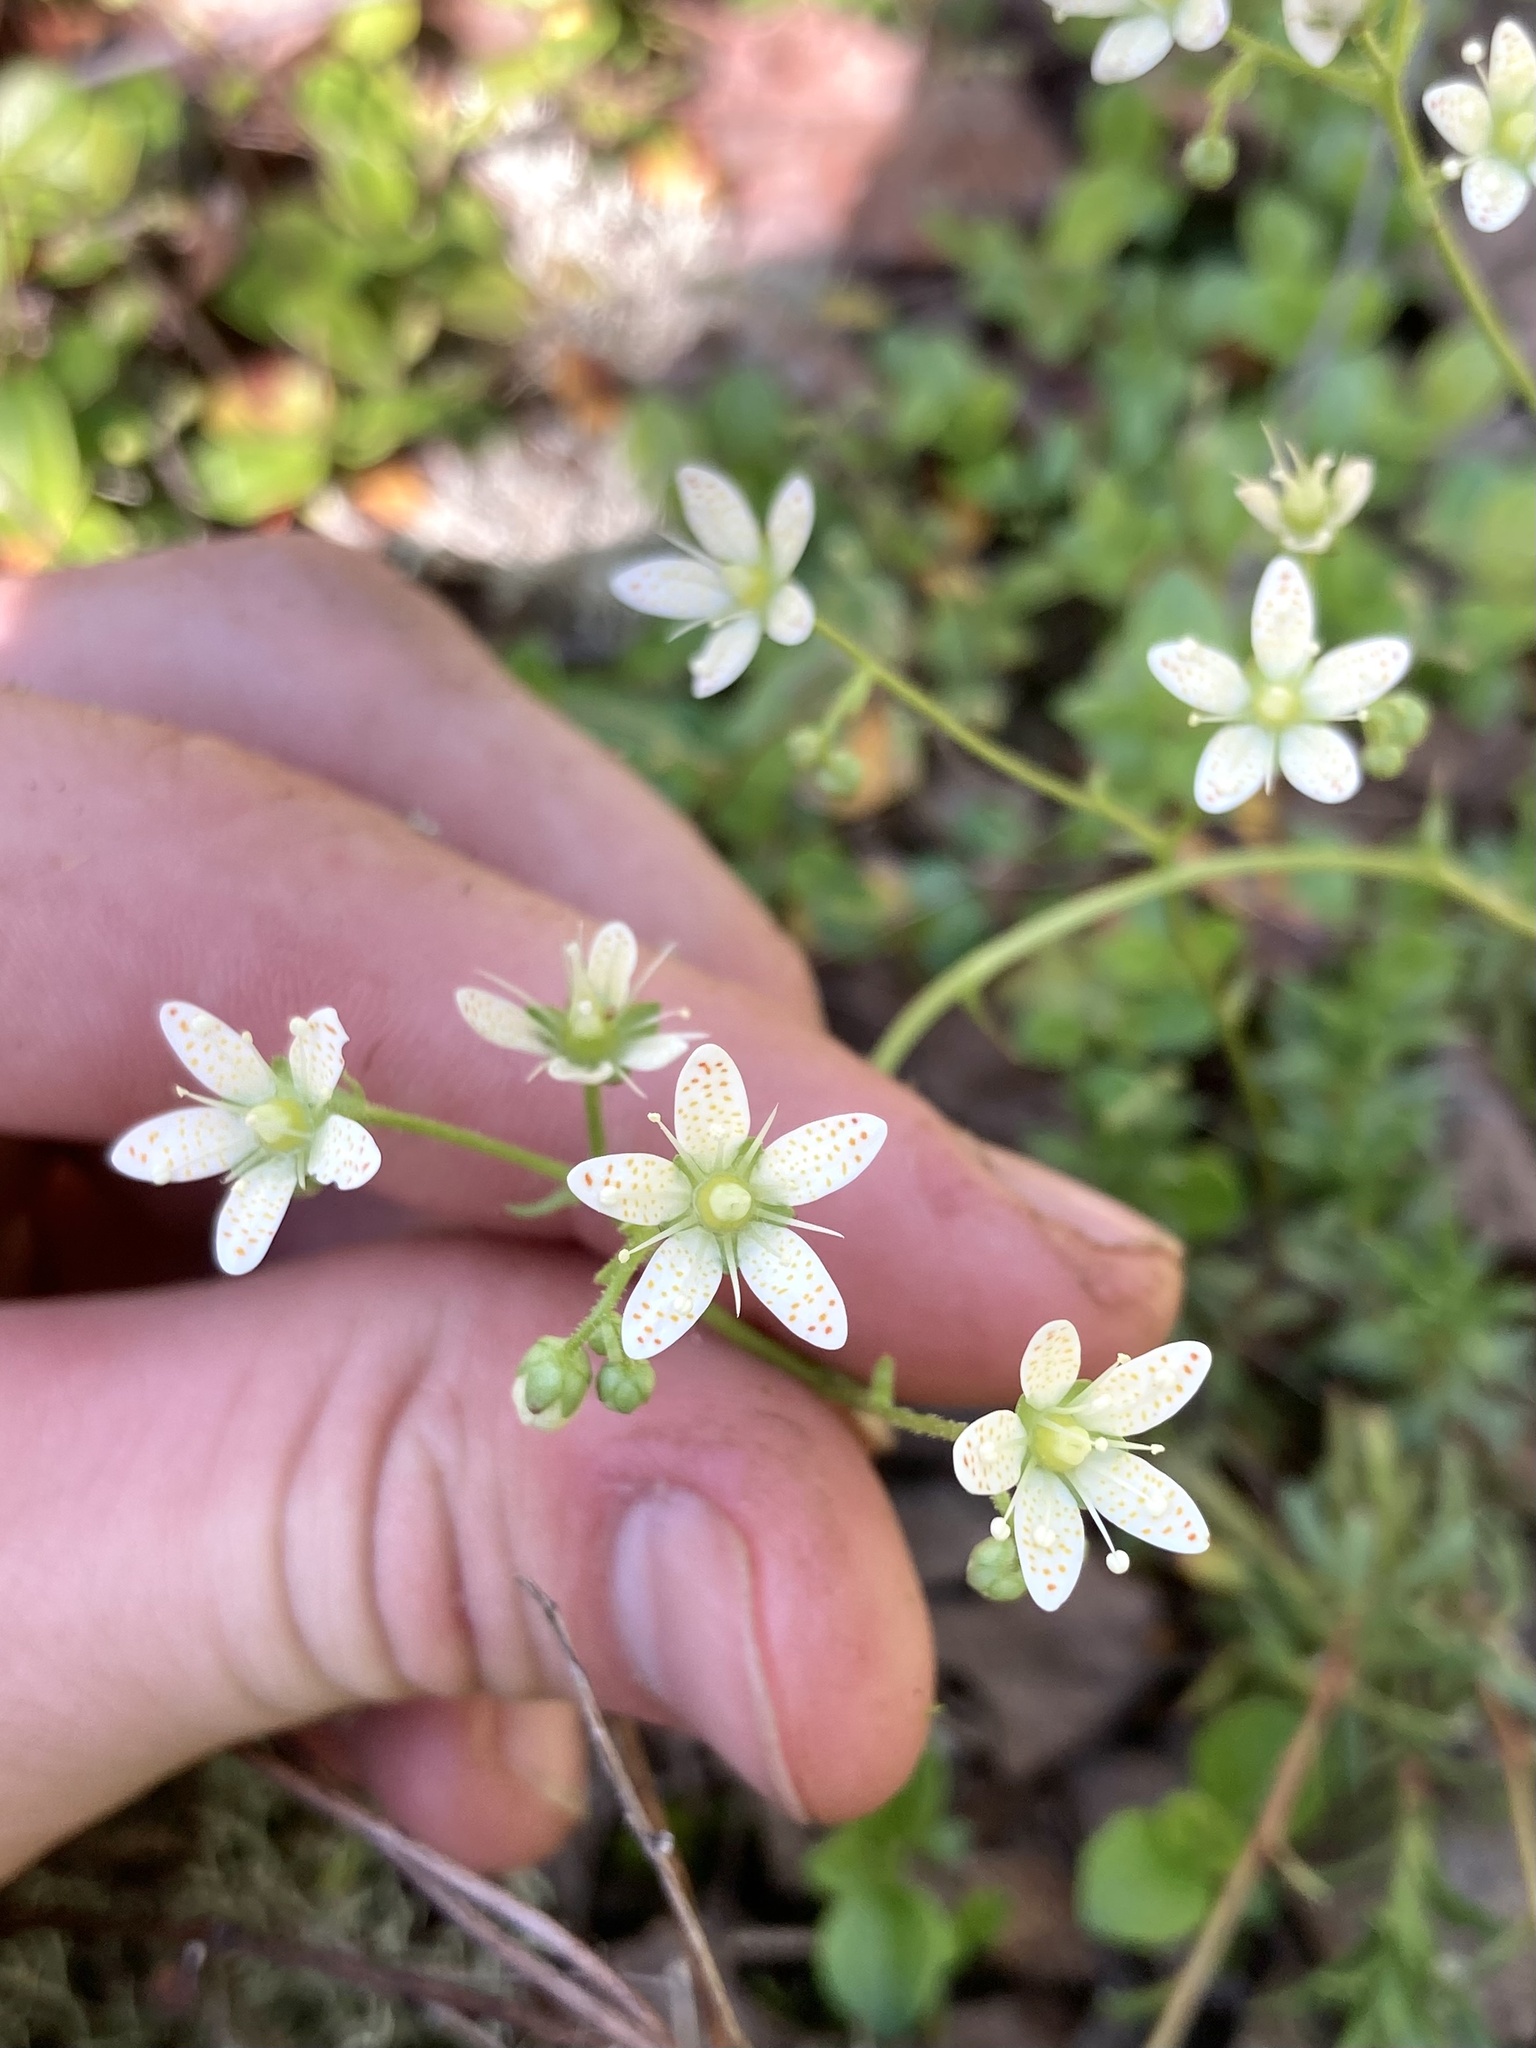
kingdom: Plantae
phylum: Tracheophyta
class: Magnoliopsida
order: Saxifragales
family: Saxifragaceae
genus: Saxifraga
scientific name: Saxifraga tricuspidata
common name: Prickly saxifrage
